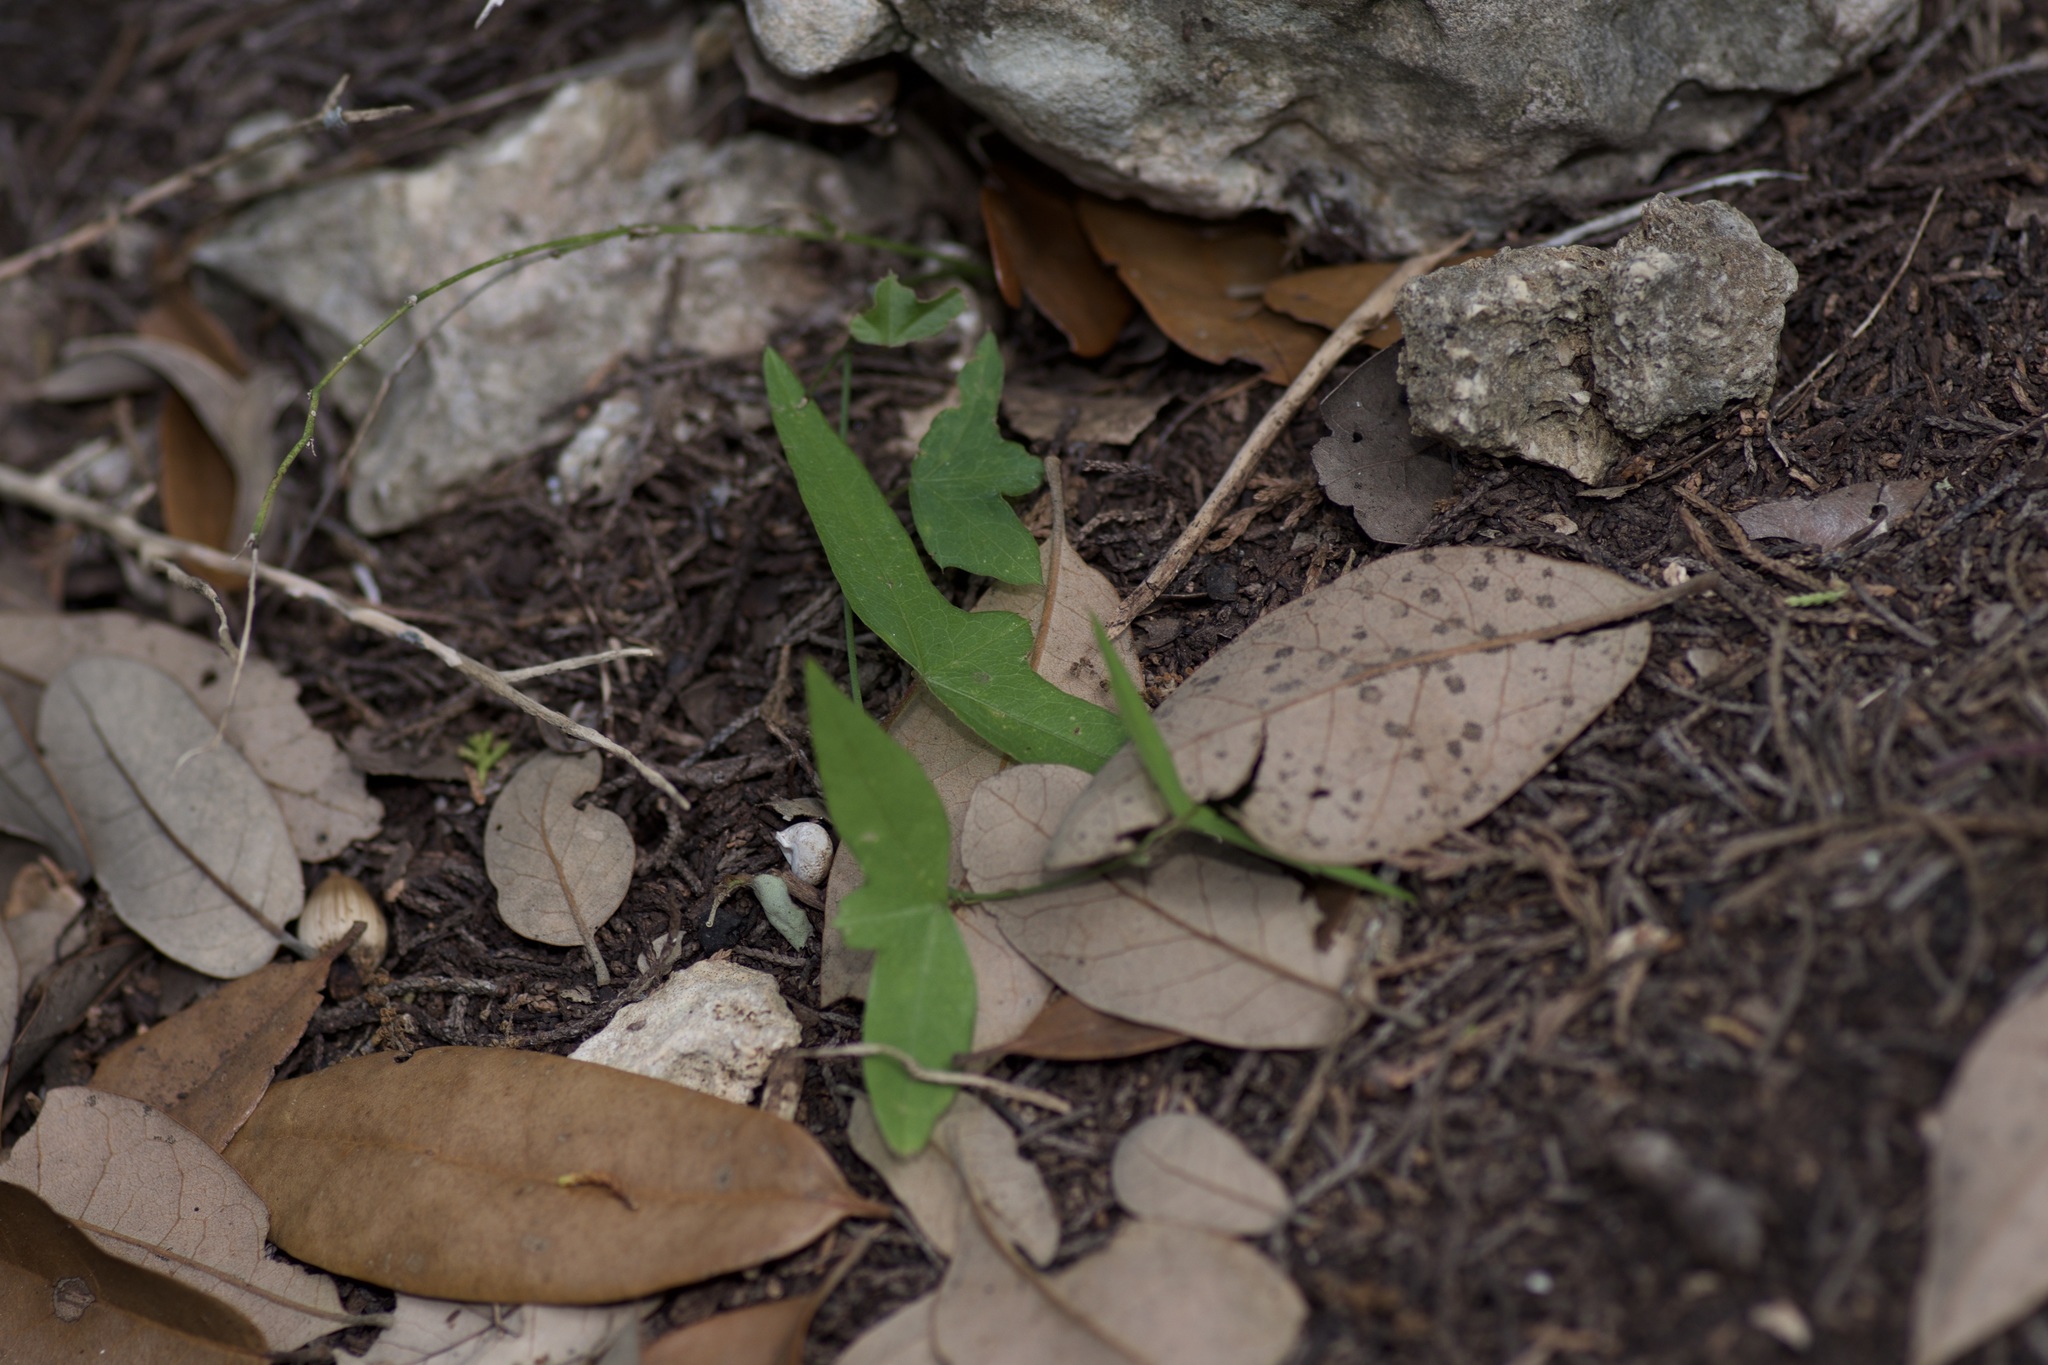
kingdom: Plantae
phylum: Tracheophyta
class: Magnoliopsida
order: Malpighiales
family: Passifloraceae
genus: Passiflora
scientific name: Passiflora tenuiloba
